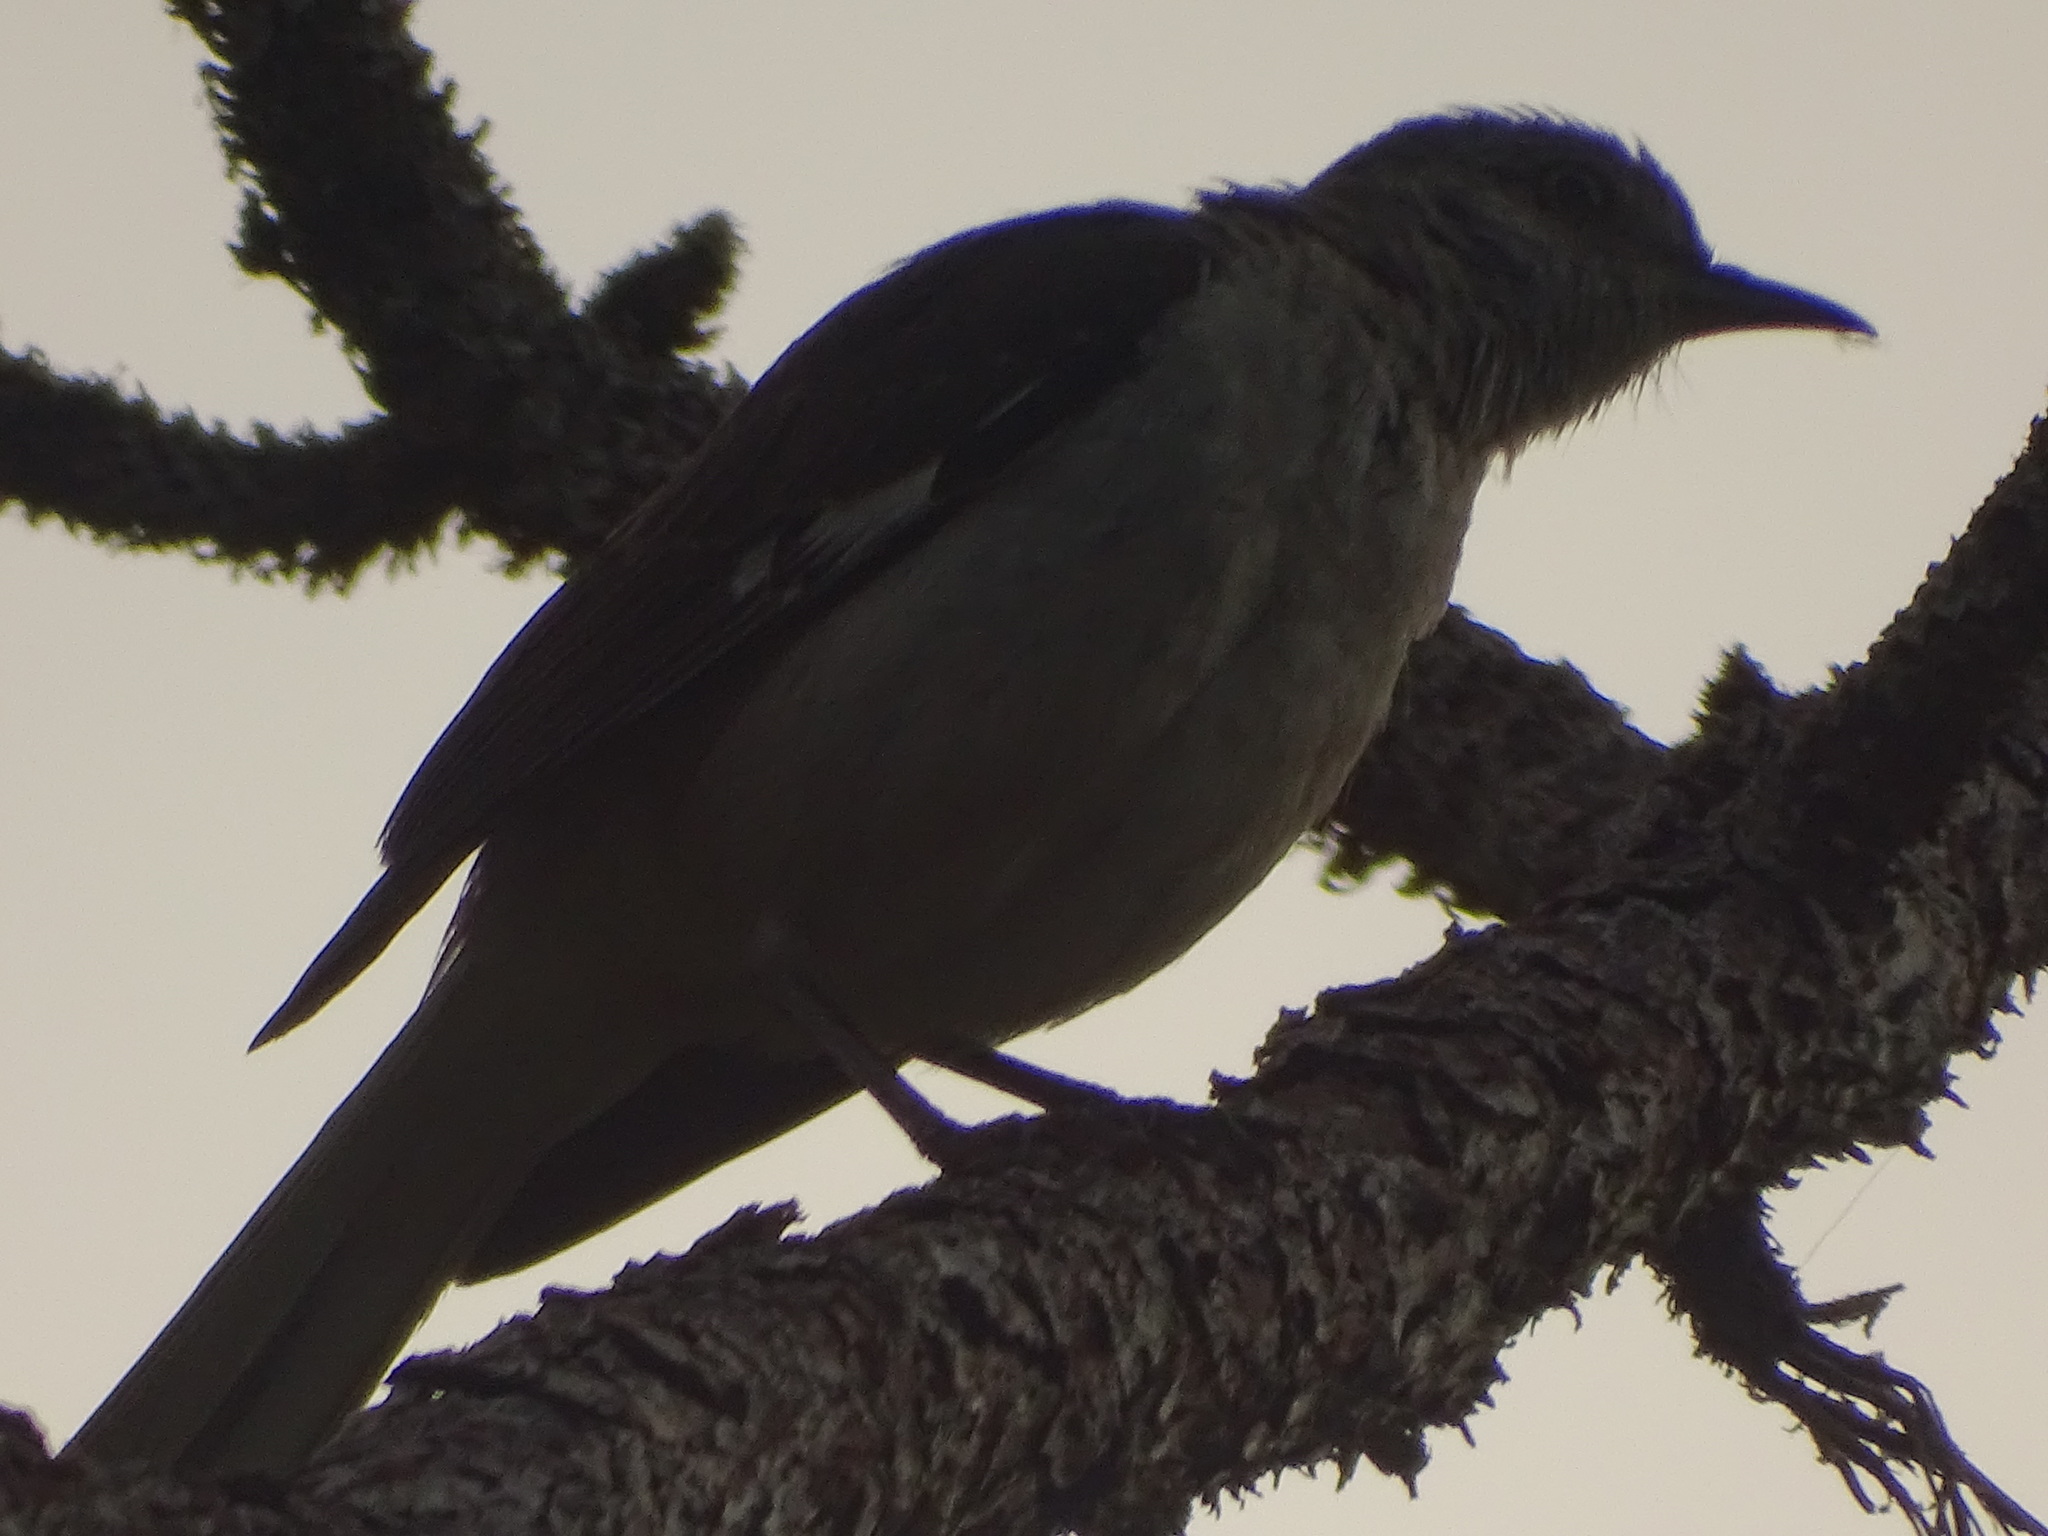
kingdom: Animalia
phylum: Chordata
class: Aves
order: Passeriformes
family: Mimidae
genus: Mimus
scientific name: Mimus polyglottos
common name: Northern mockingbird
